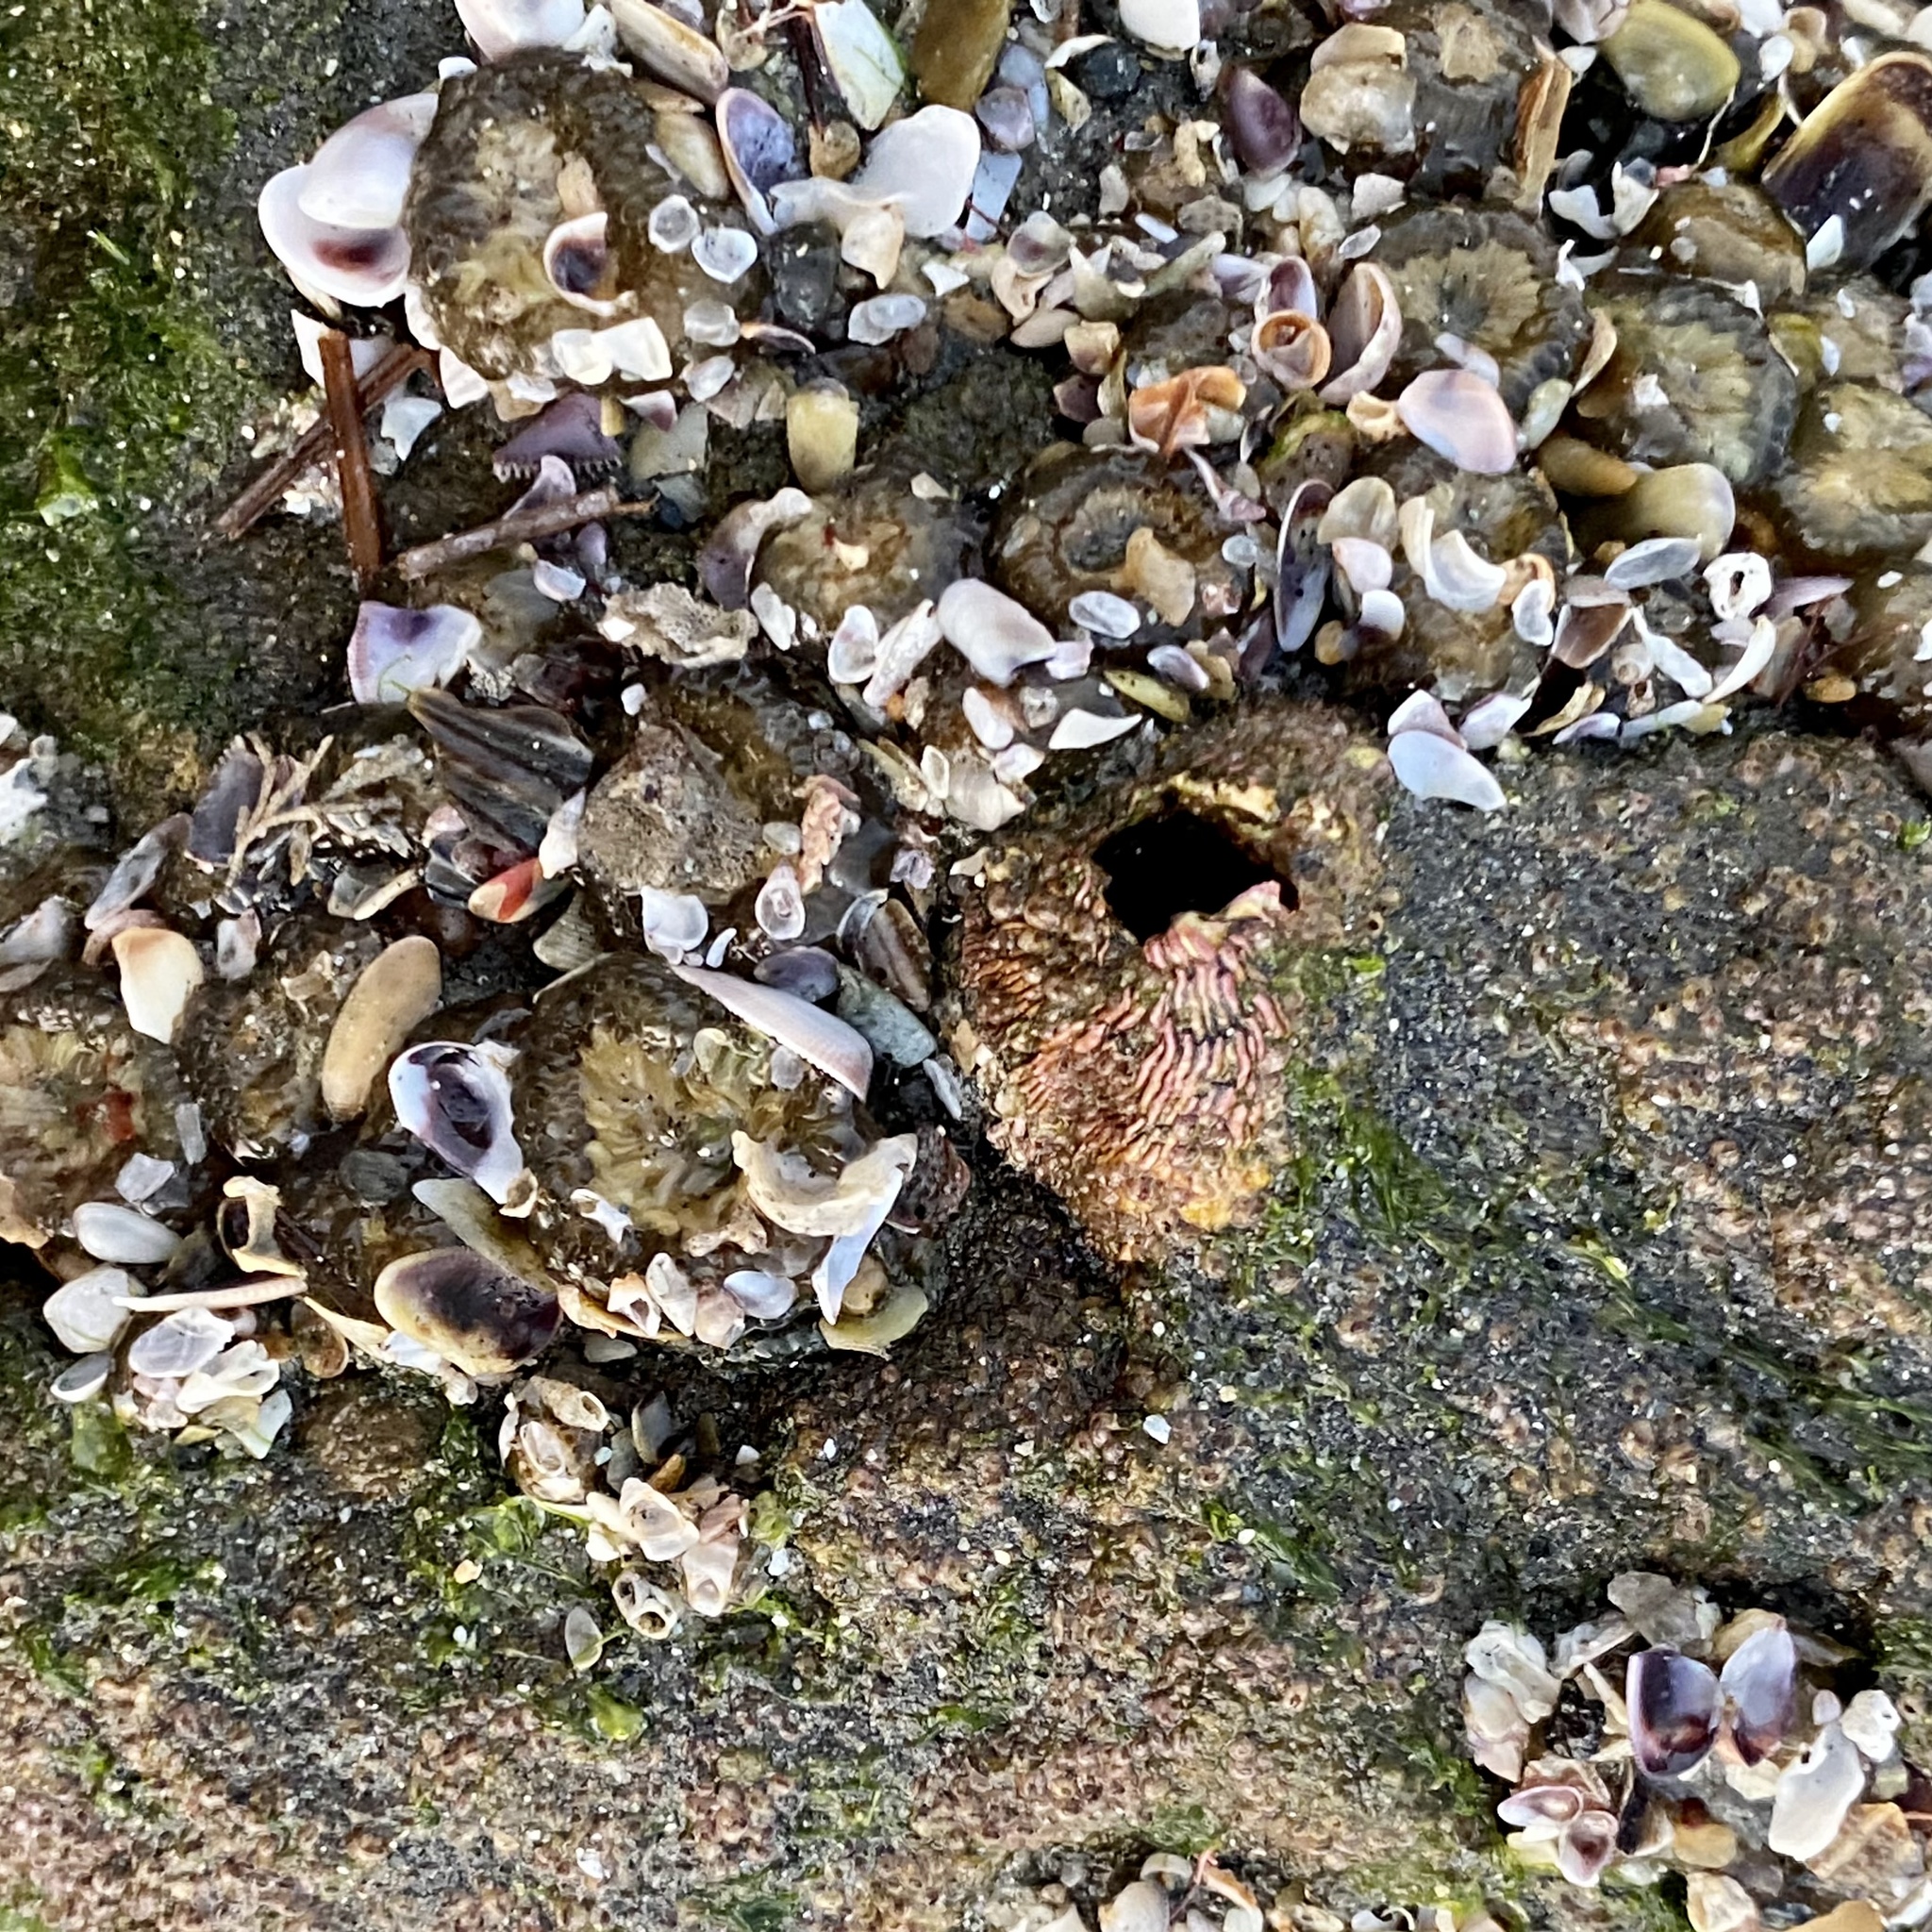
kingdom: Animalia
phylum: Arthropoda
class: Maxillopoda
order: Sessilia
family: Tetraclitidae
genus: Tetraclita
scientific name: Tetraclita rubescens
